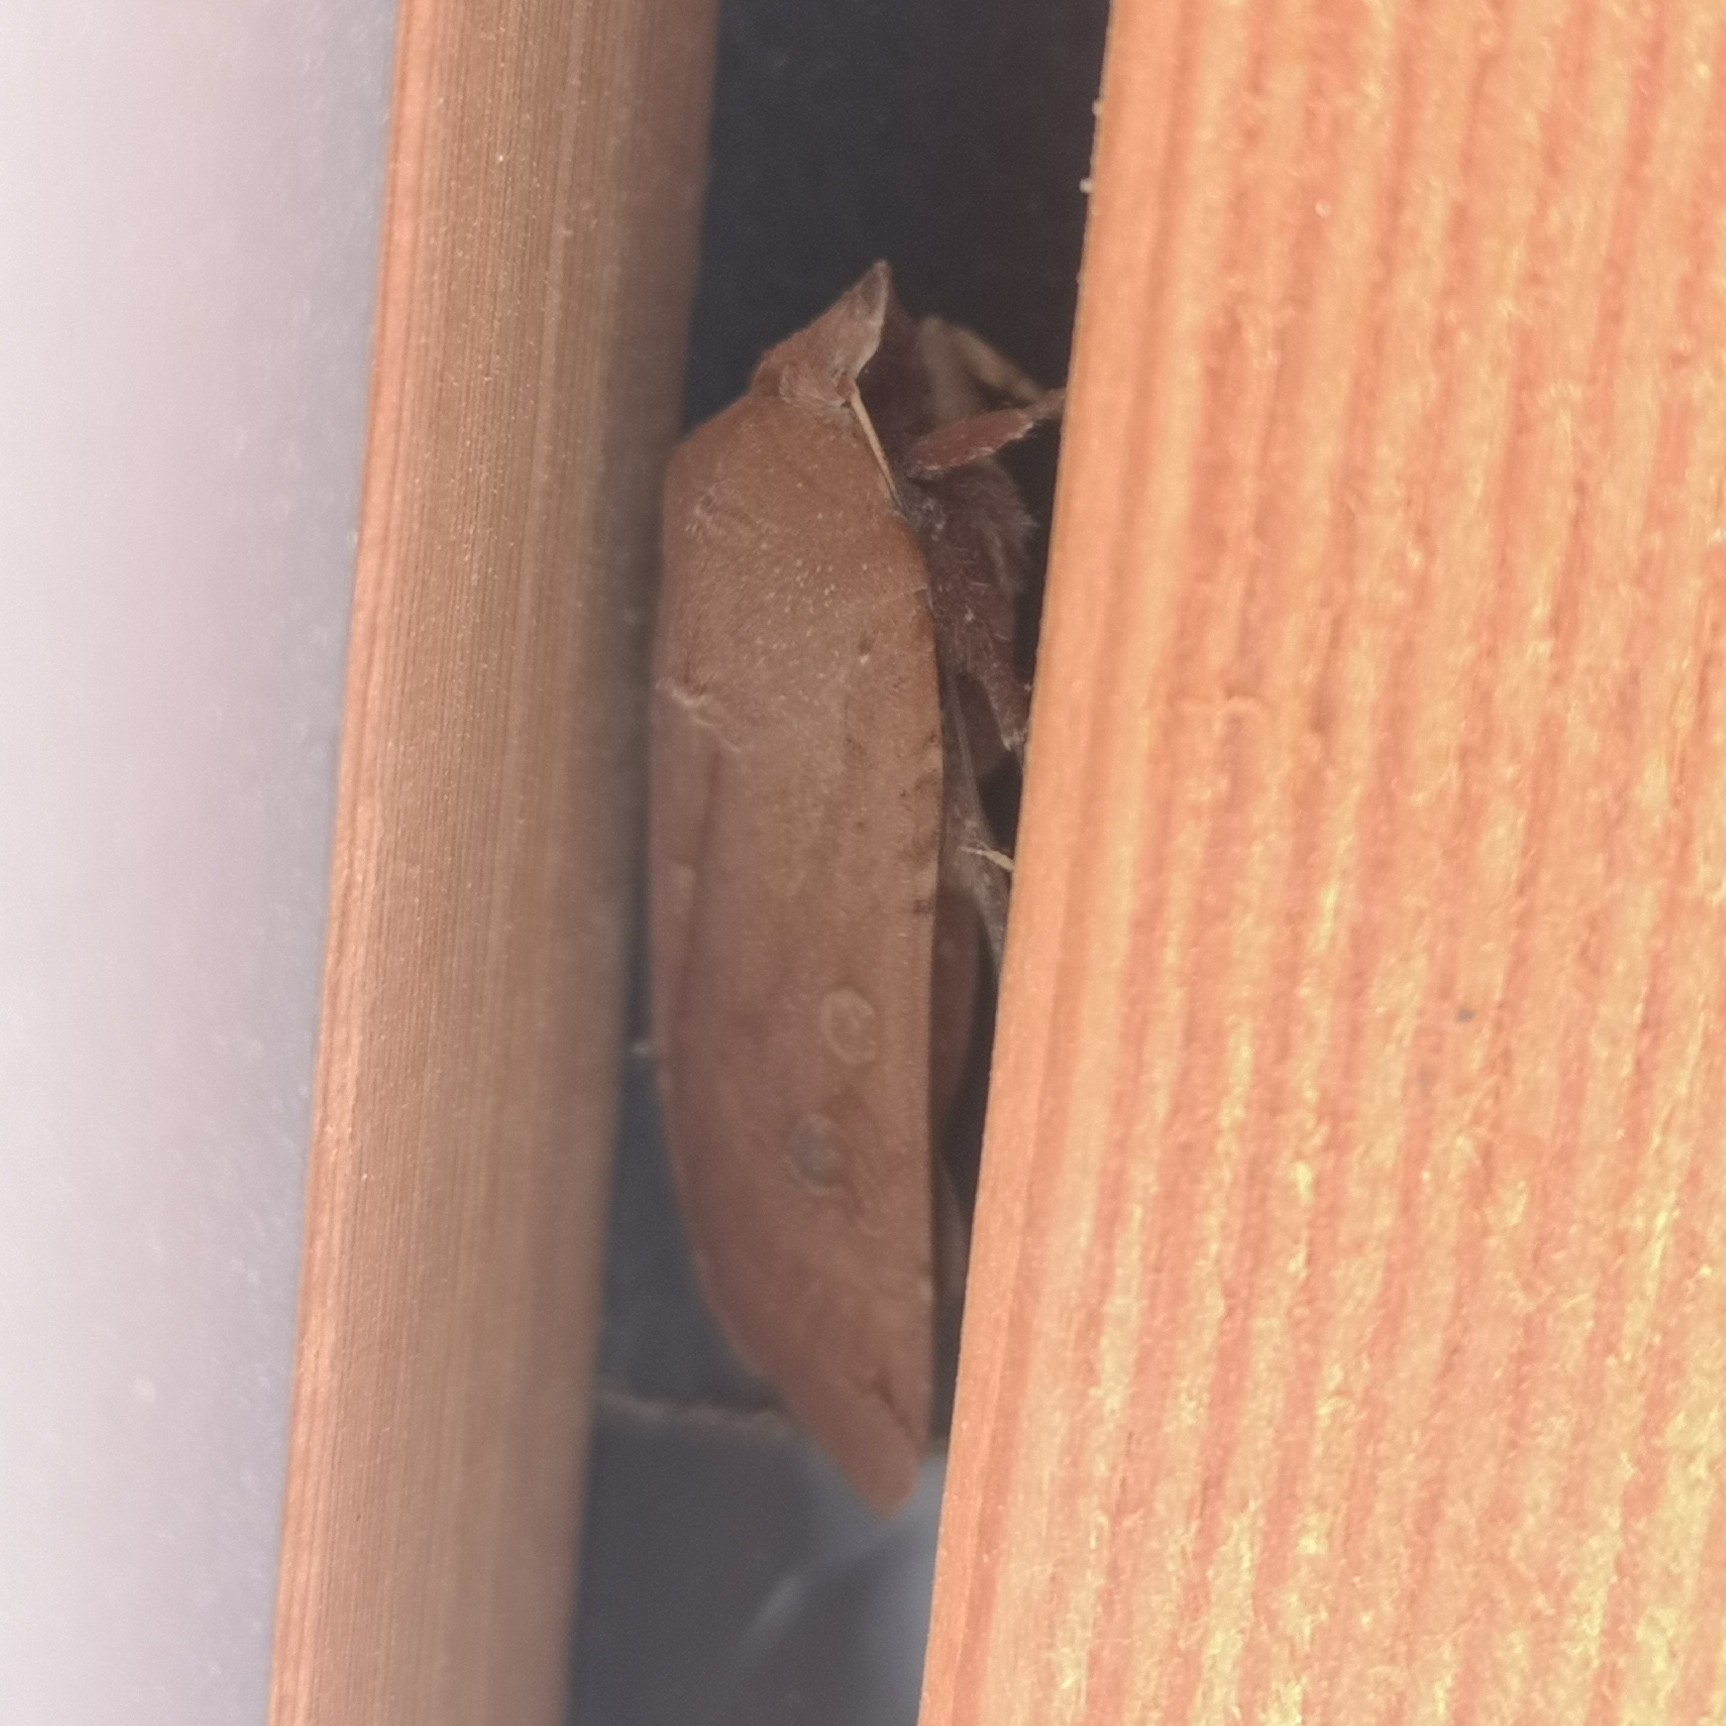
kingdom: Animalia
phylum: Arthropoda
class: Insecta
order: Lepidoptera
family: Noctuidae
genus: Noctua
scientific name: Noctua pronuba
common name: Large yellow underwing
